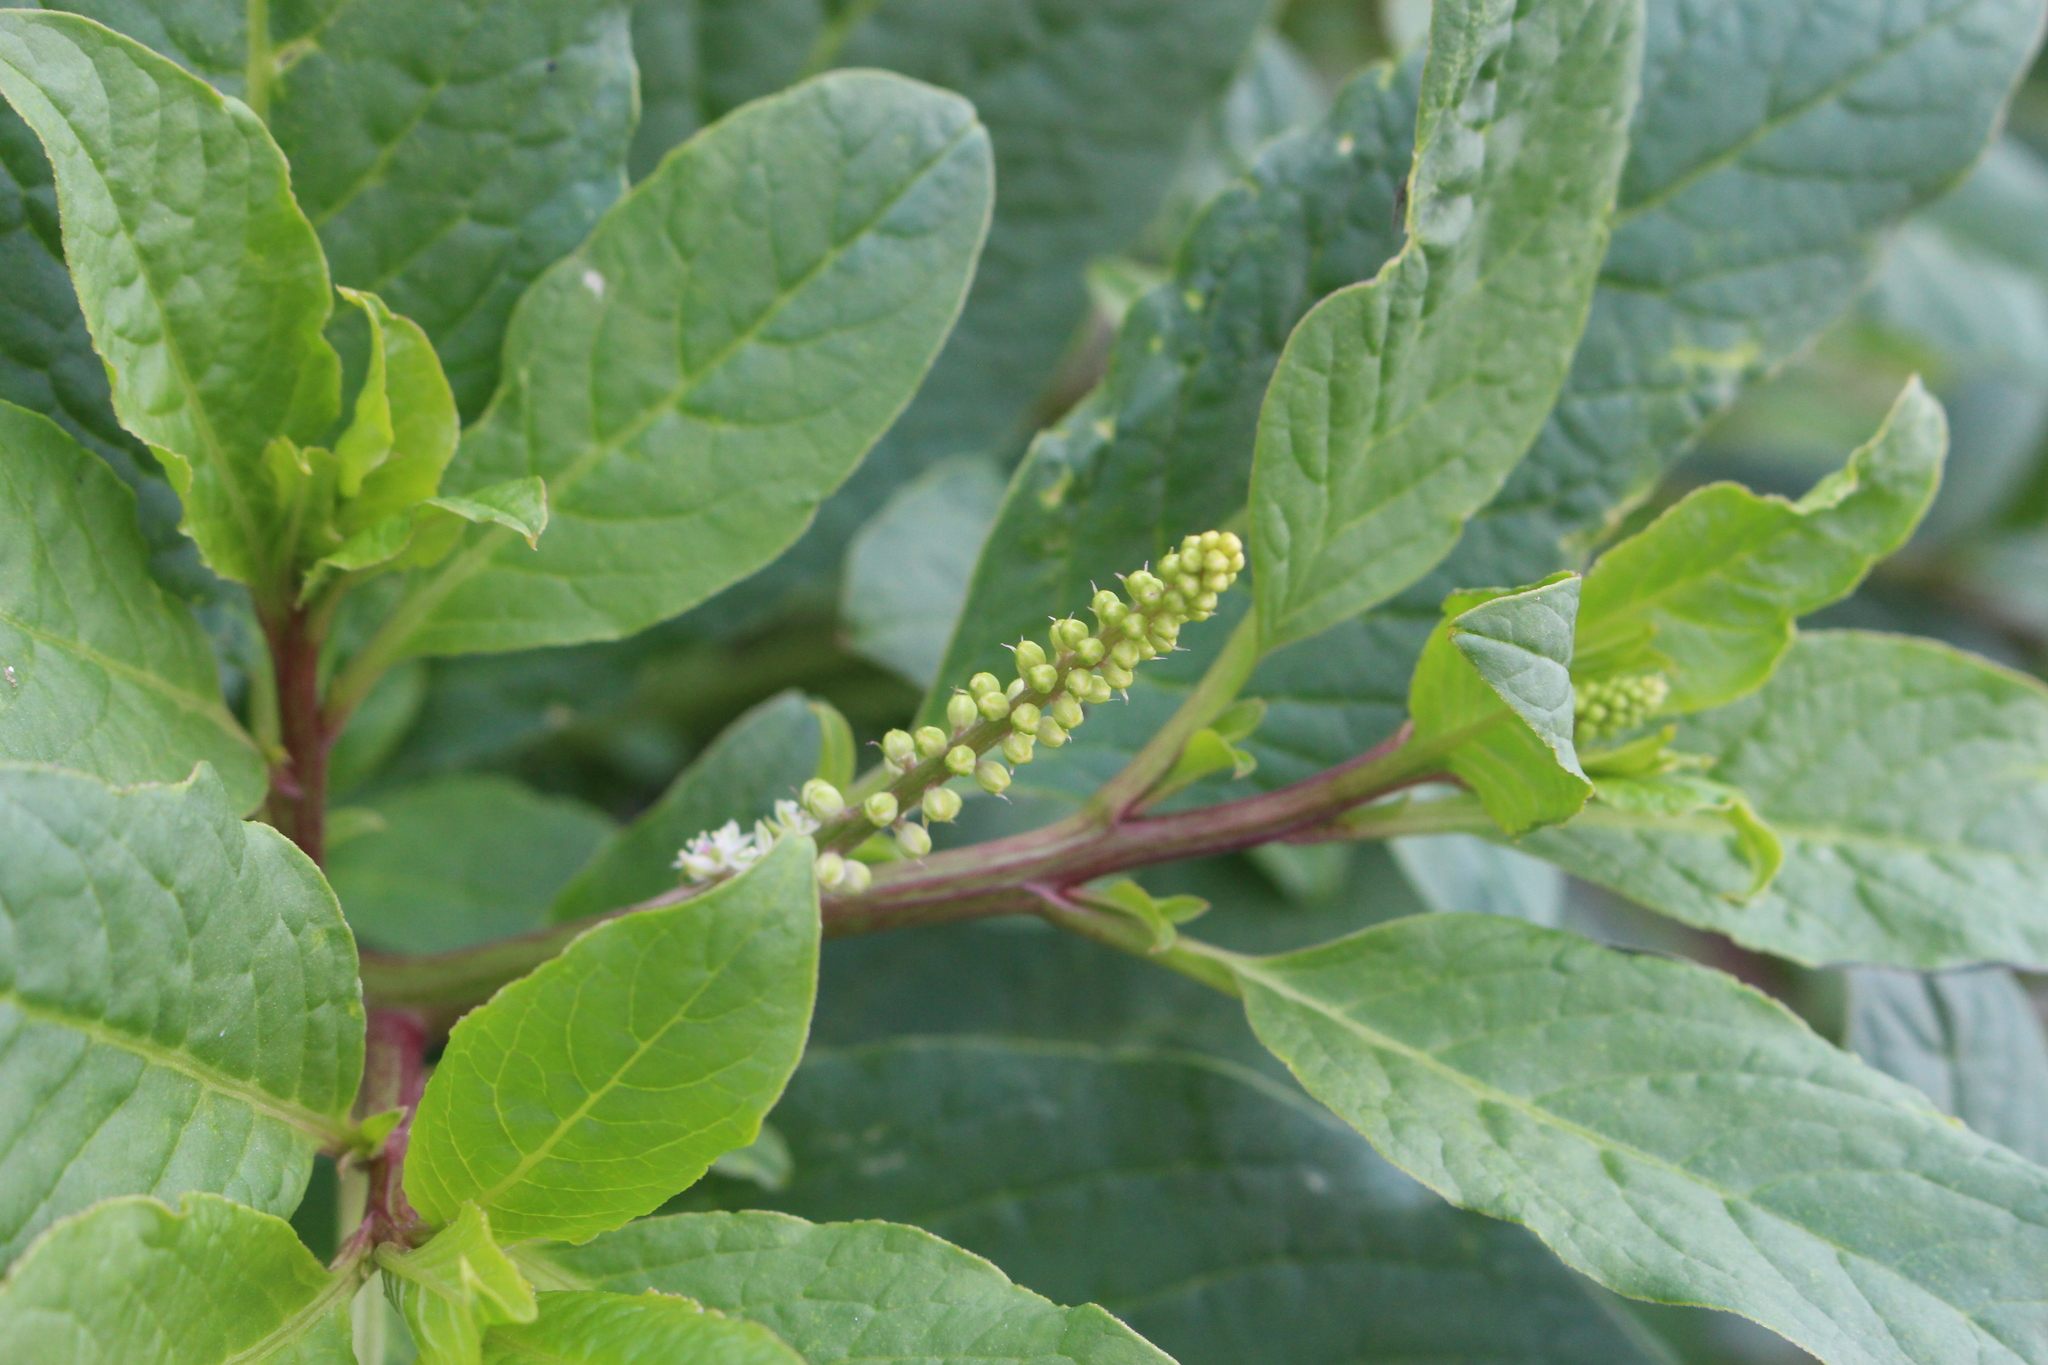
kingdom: Plantae
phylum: Tracheophyta
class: Magnoliopsida
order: Caryophyllales
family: Phytolaccaceae
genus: Phytolacca
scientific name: Phytolacca icosandra
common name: Button pokeweed
